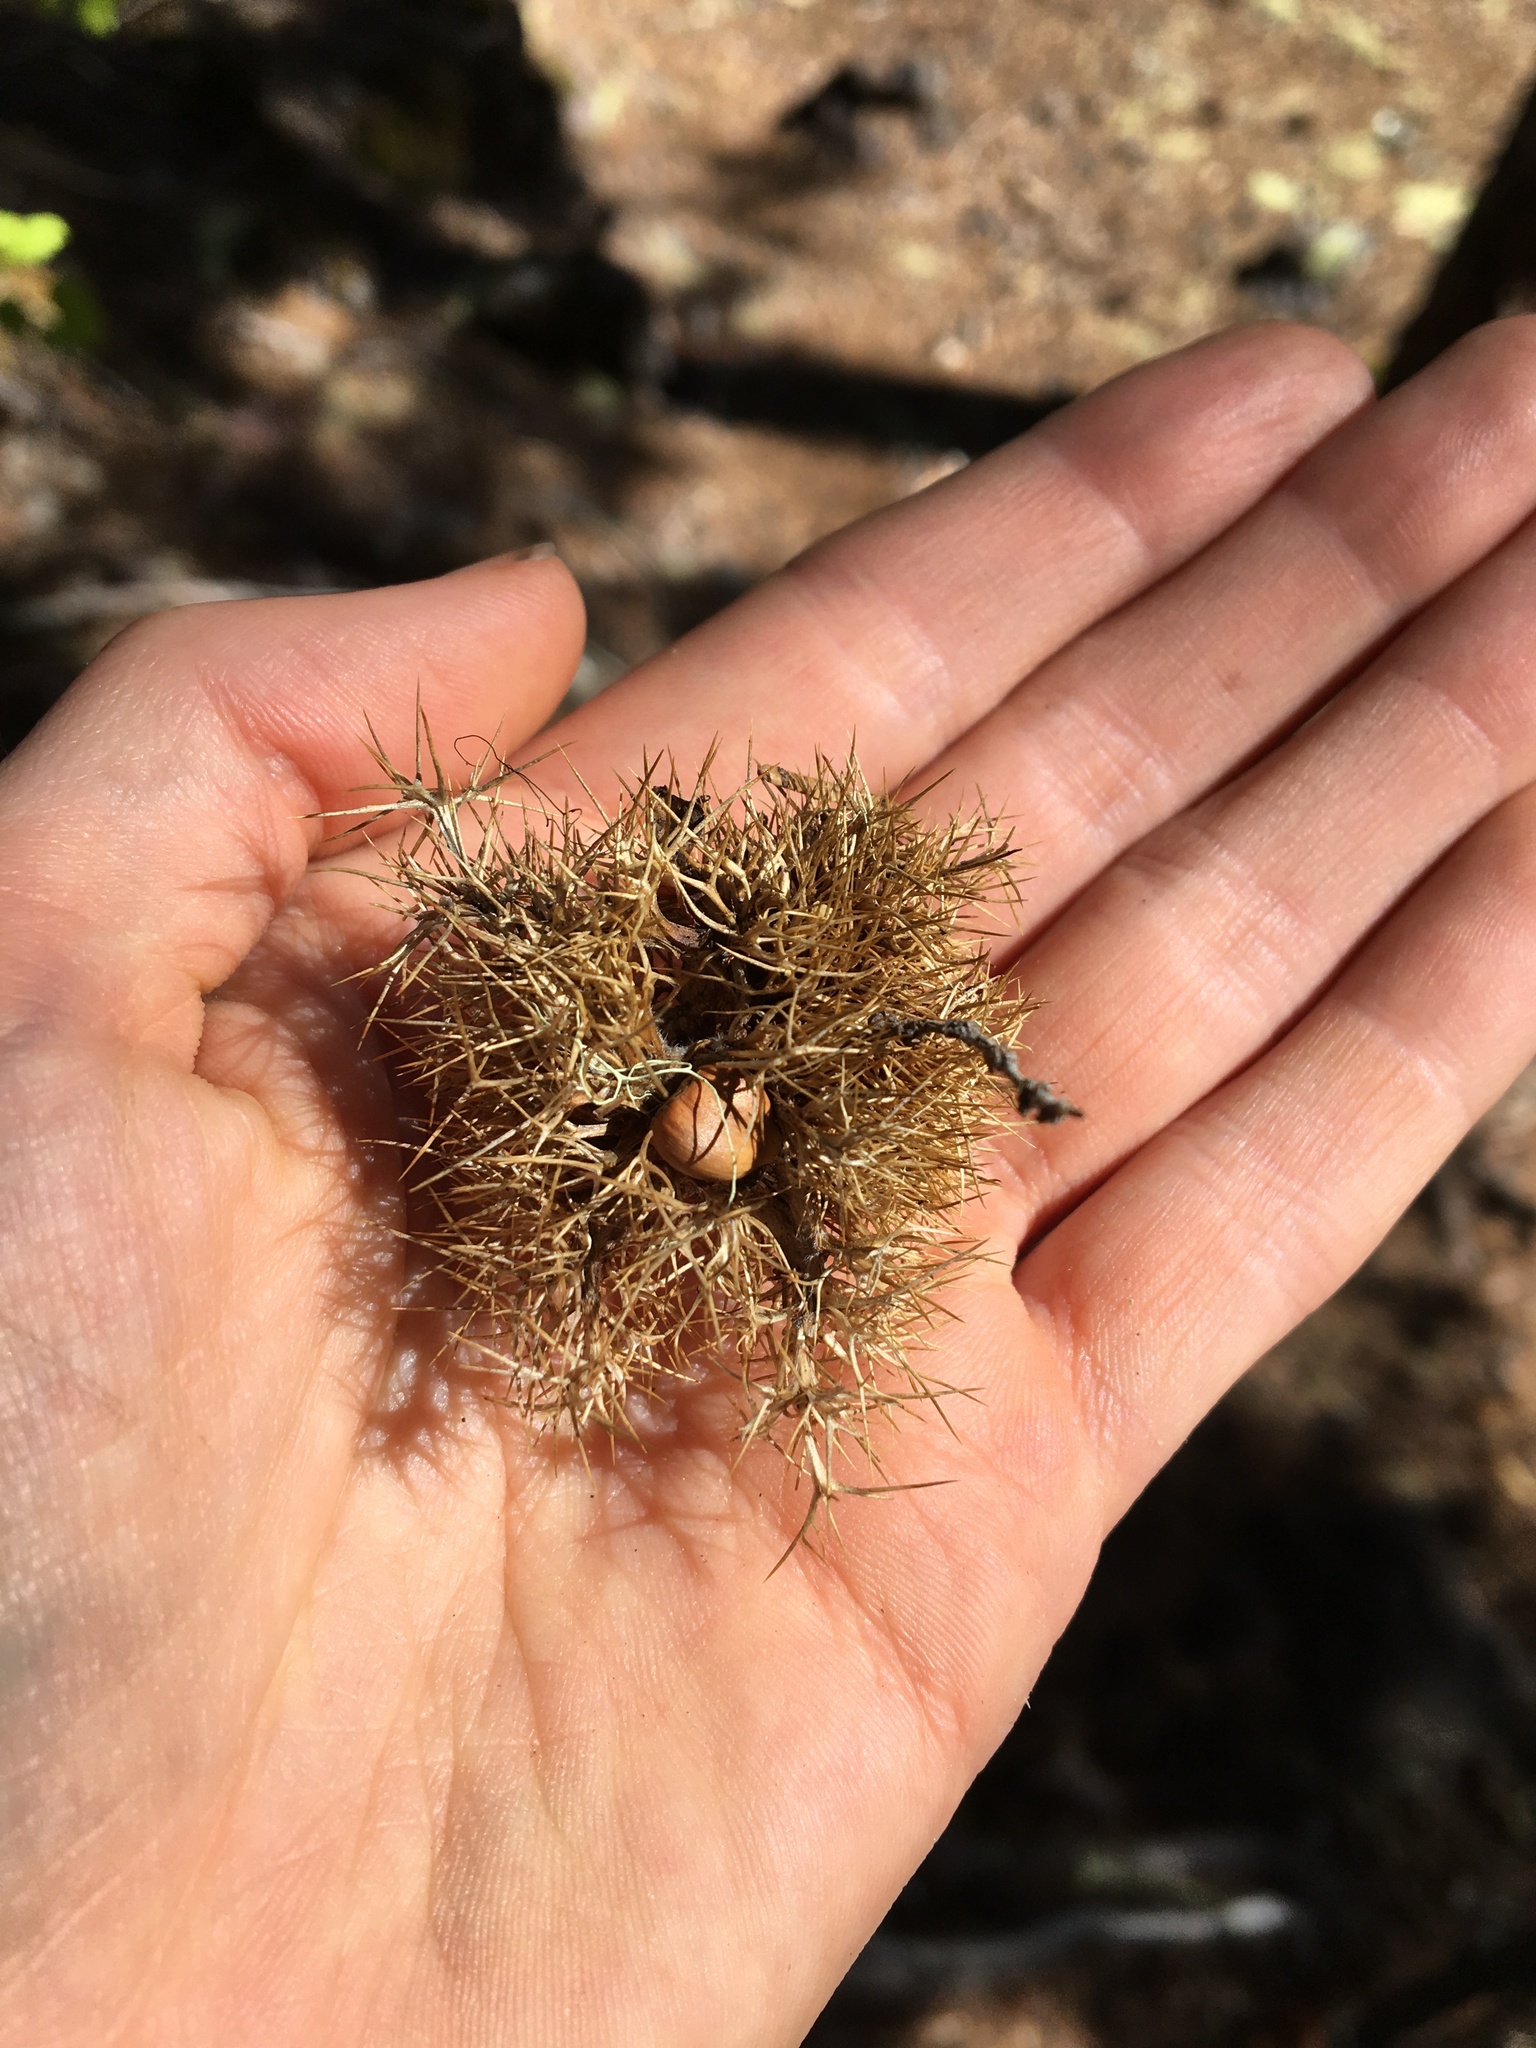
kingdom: Plantae
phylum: Tracheophyta
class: Magnoliopsida
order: Fagales
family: Fagaceae
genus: Chrysolepis
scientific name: Chrysolepis chrysophylla
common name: Giant chinquapin
